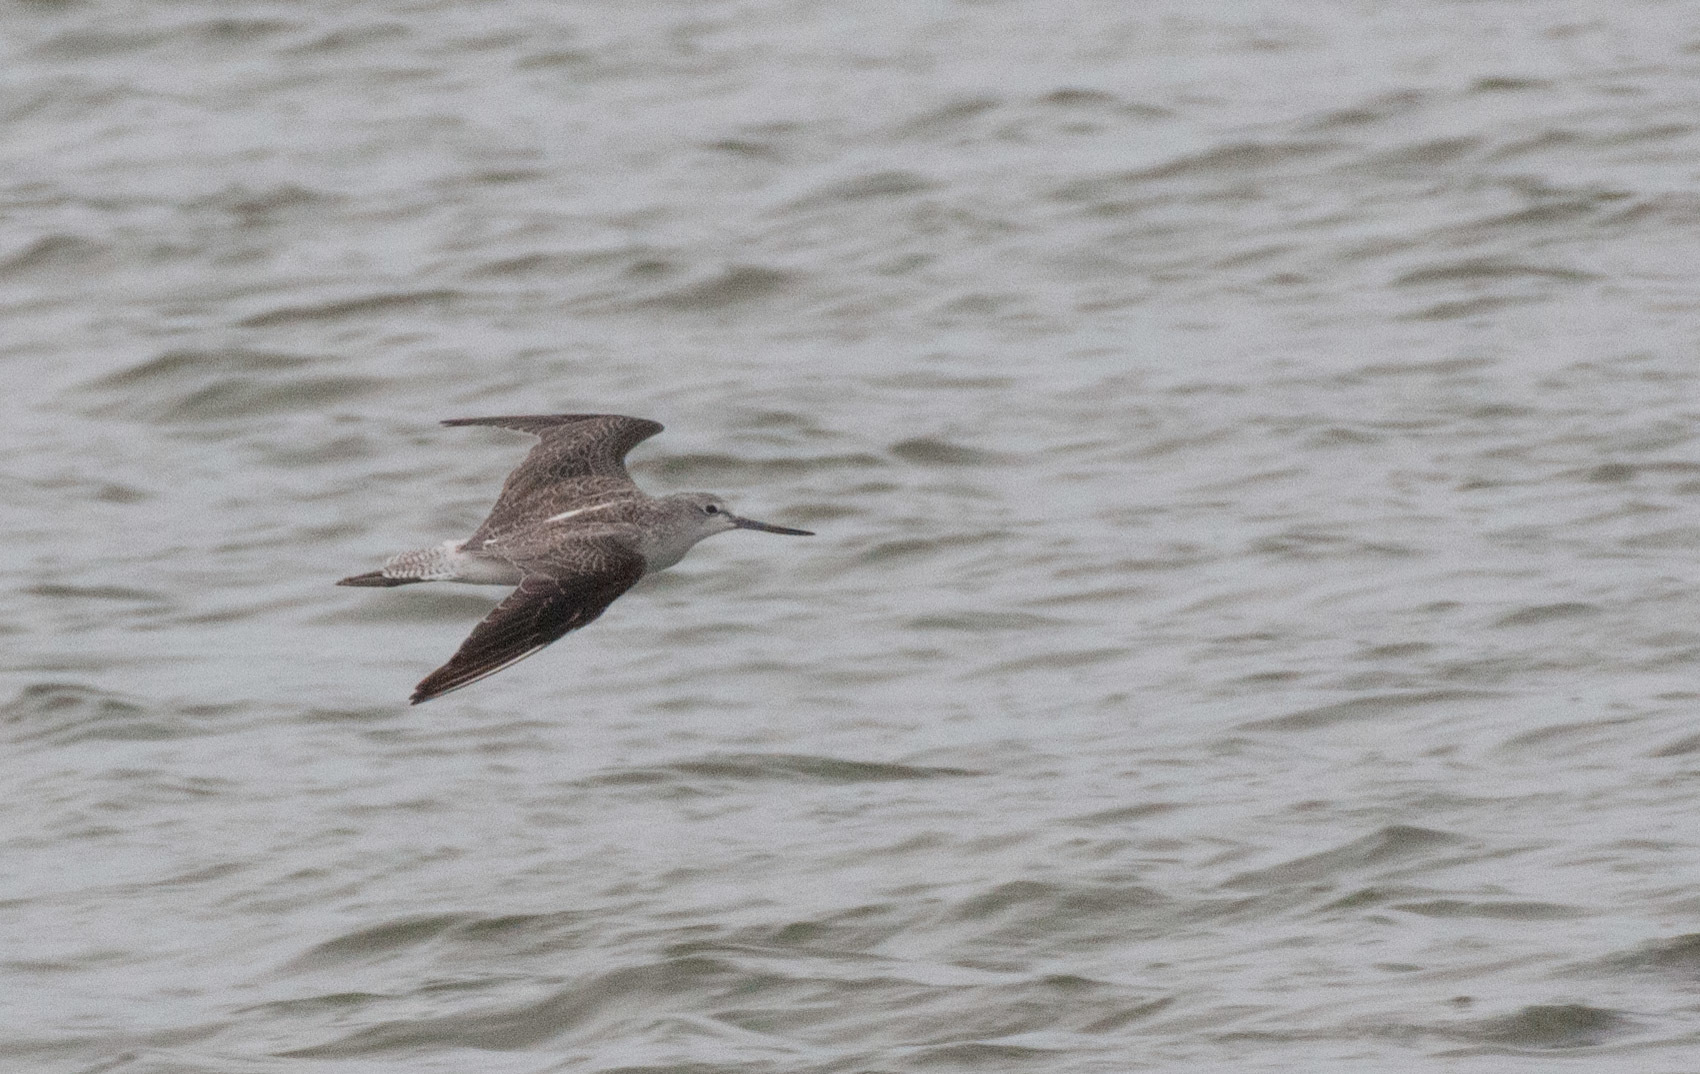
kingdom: Animalia
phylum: Chordata
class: Aves
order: Charadriiformes
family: Scolopacidae
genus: Tringa
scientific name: Tringa nebularia
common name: Common greenshank
